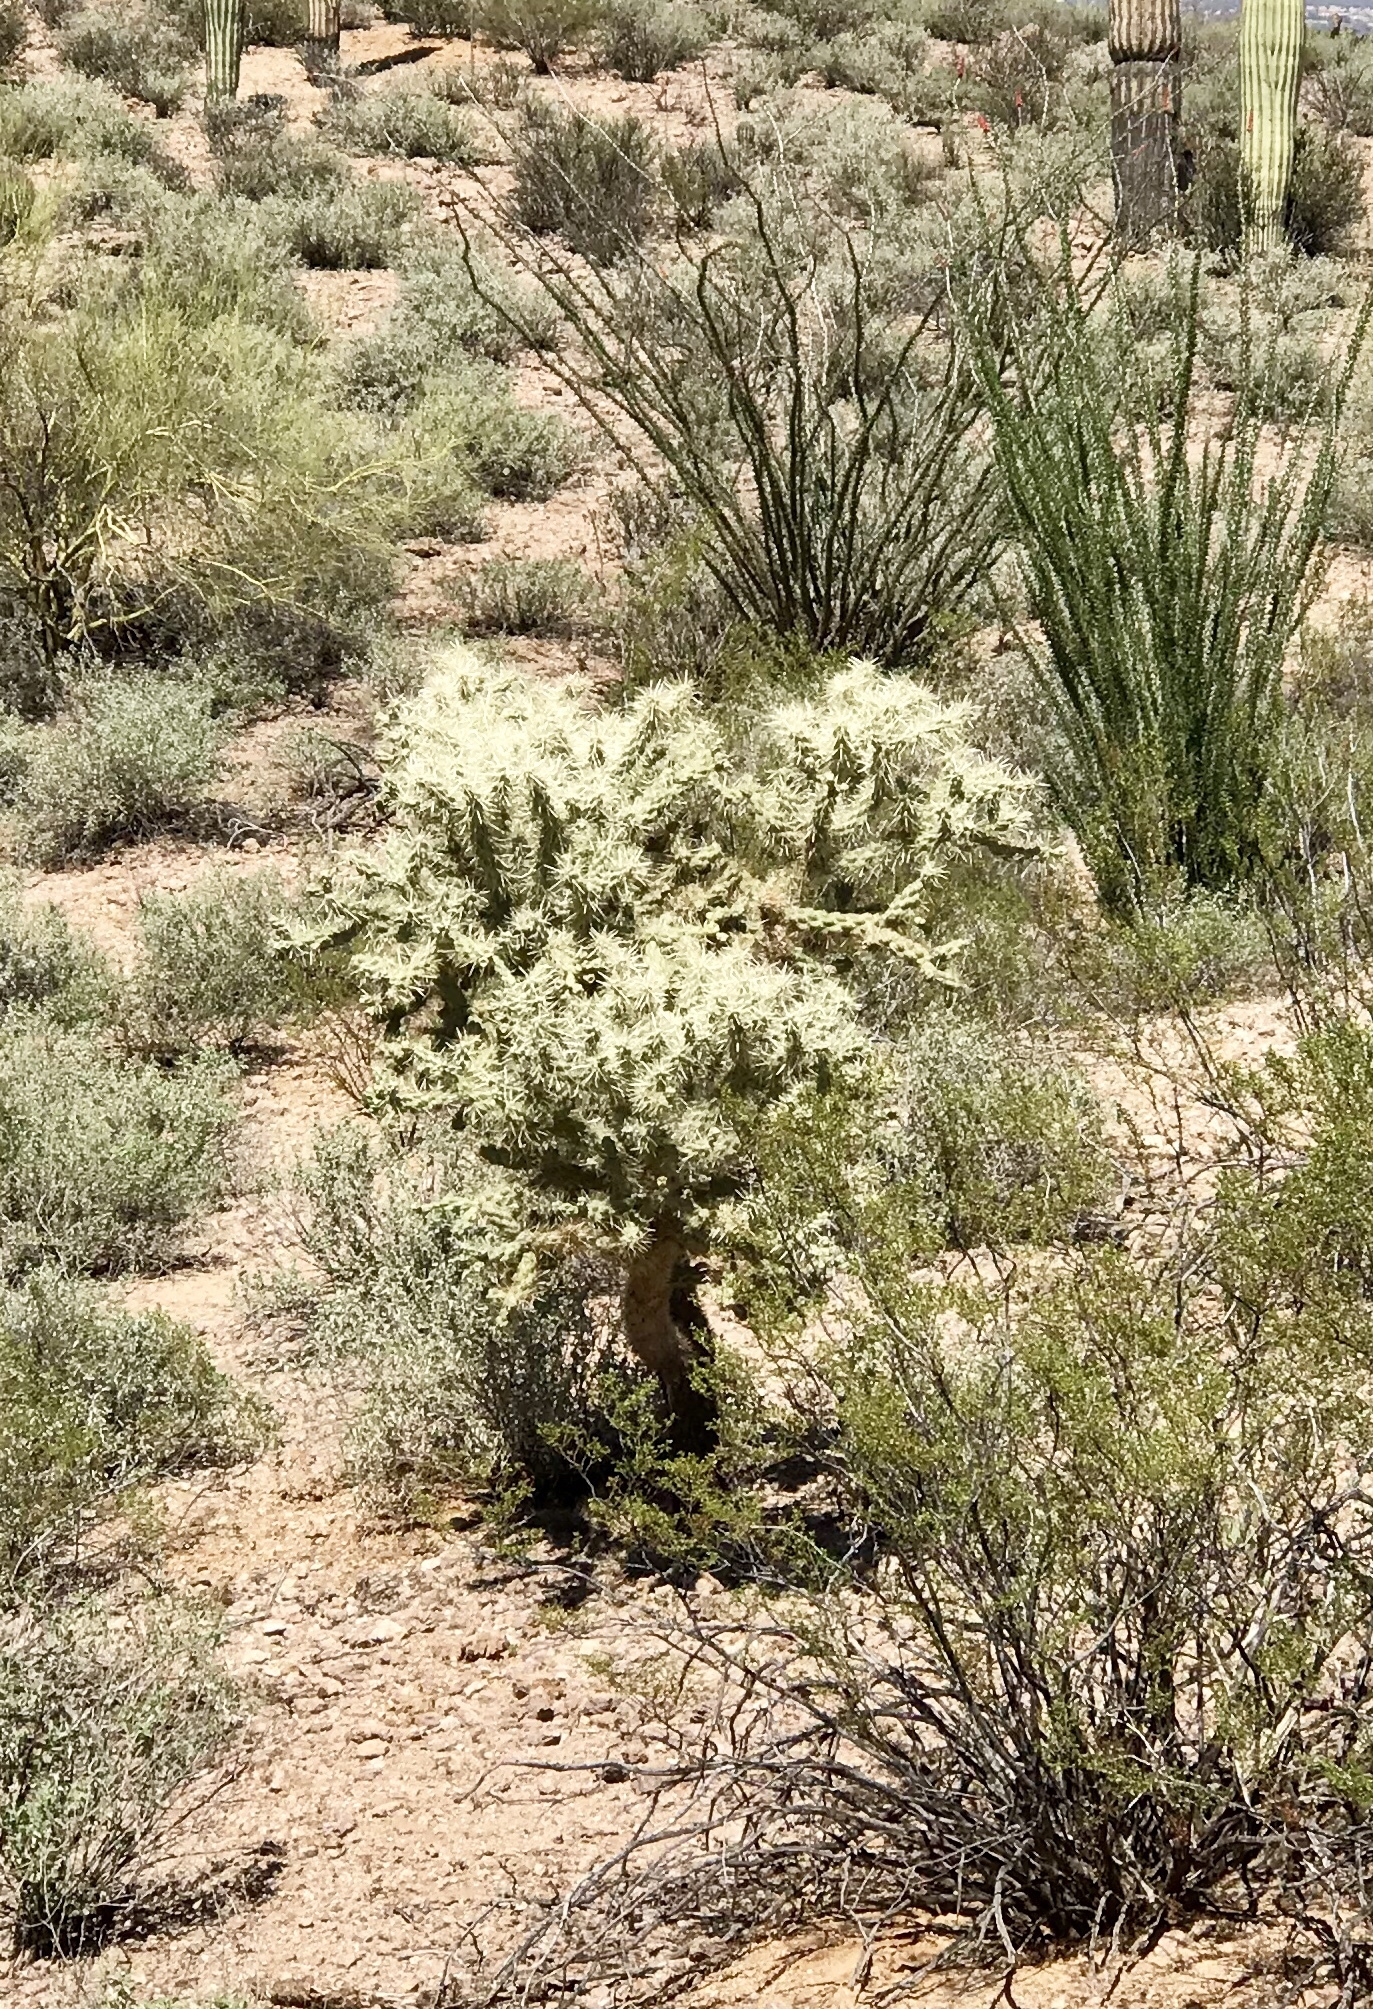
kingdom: Plantae
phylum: Tracheophyta
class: Magnoliopsida
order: Caryophyllales
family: Cactaceae
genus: Cylindropuntia
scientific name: Cylindropuntia fulgida
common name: Jumping cholla
